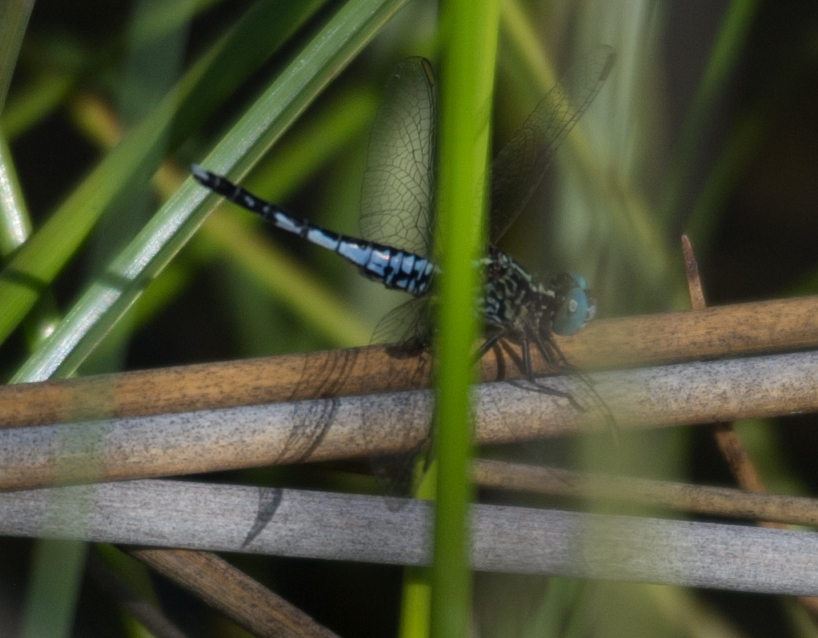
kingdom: Animalia
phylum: Arthropoda
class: Insecta
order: Odonata
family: Libellulidae
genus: Acisoma
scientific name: Acisoma inflatum
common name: Stout pintail
